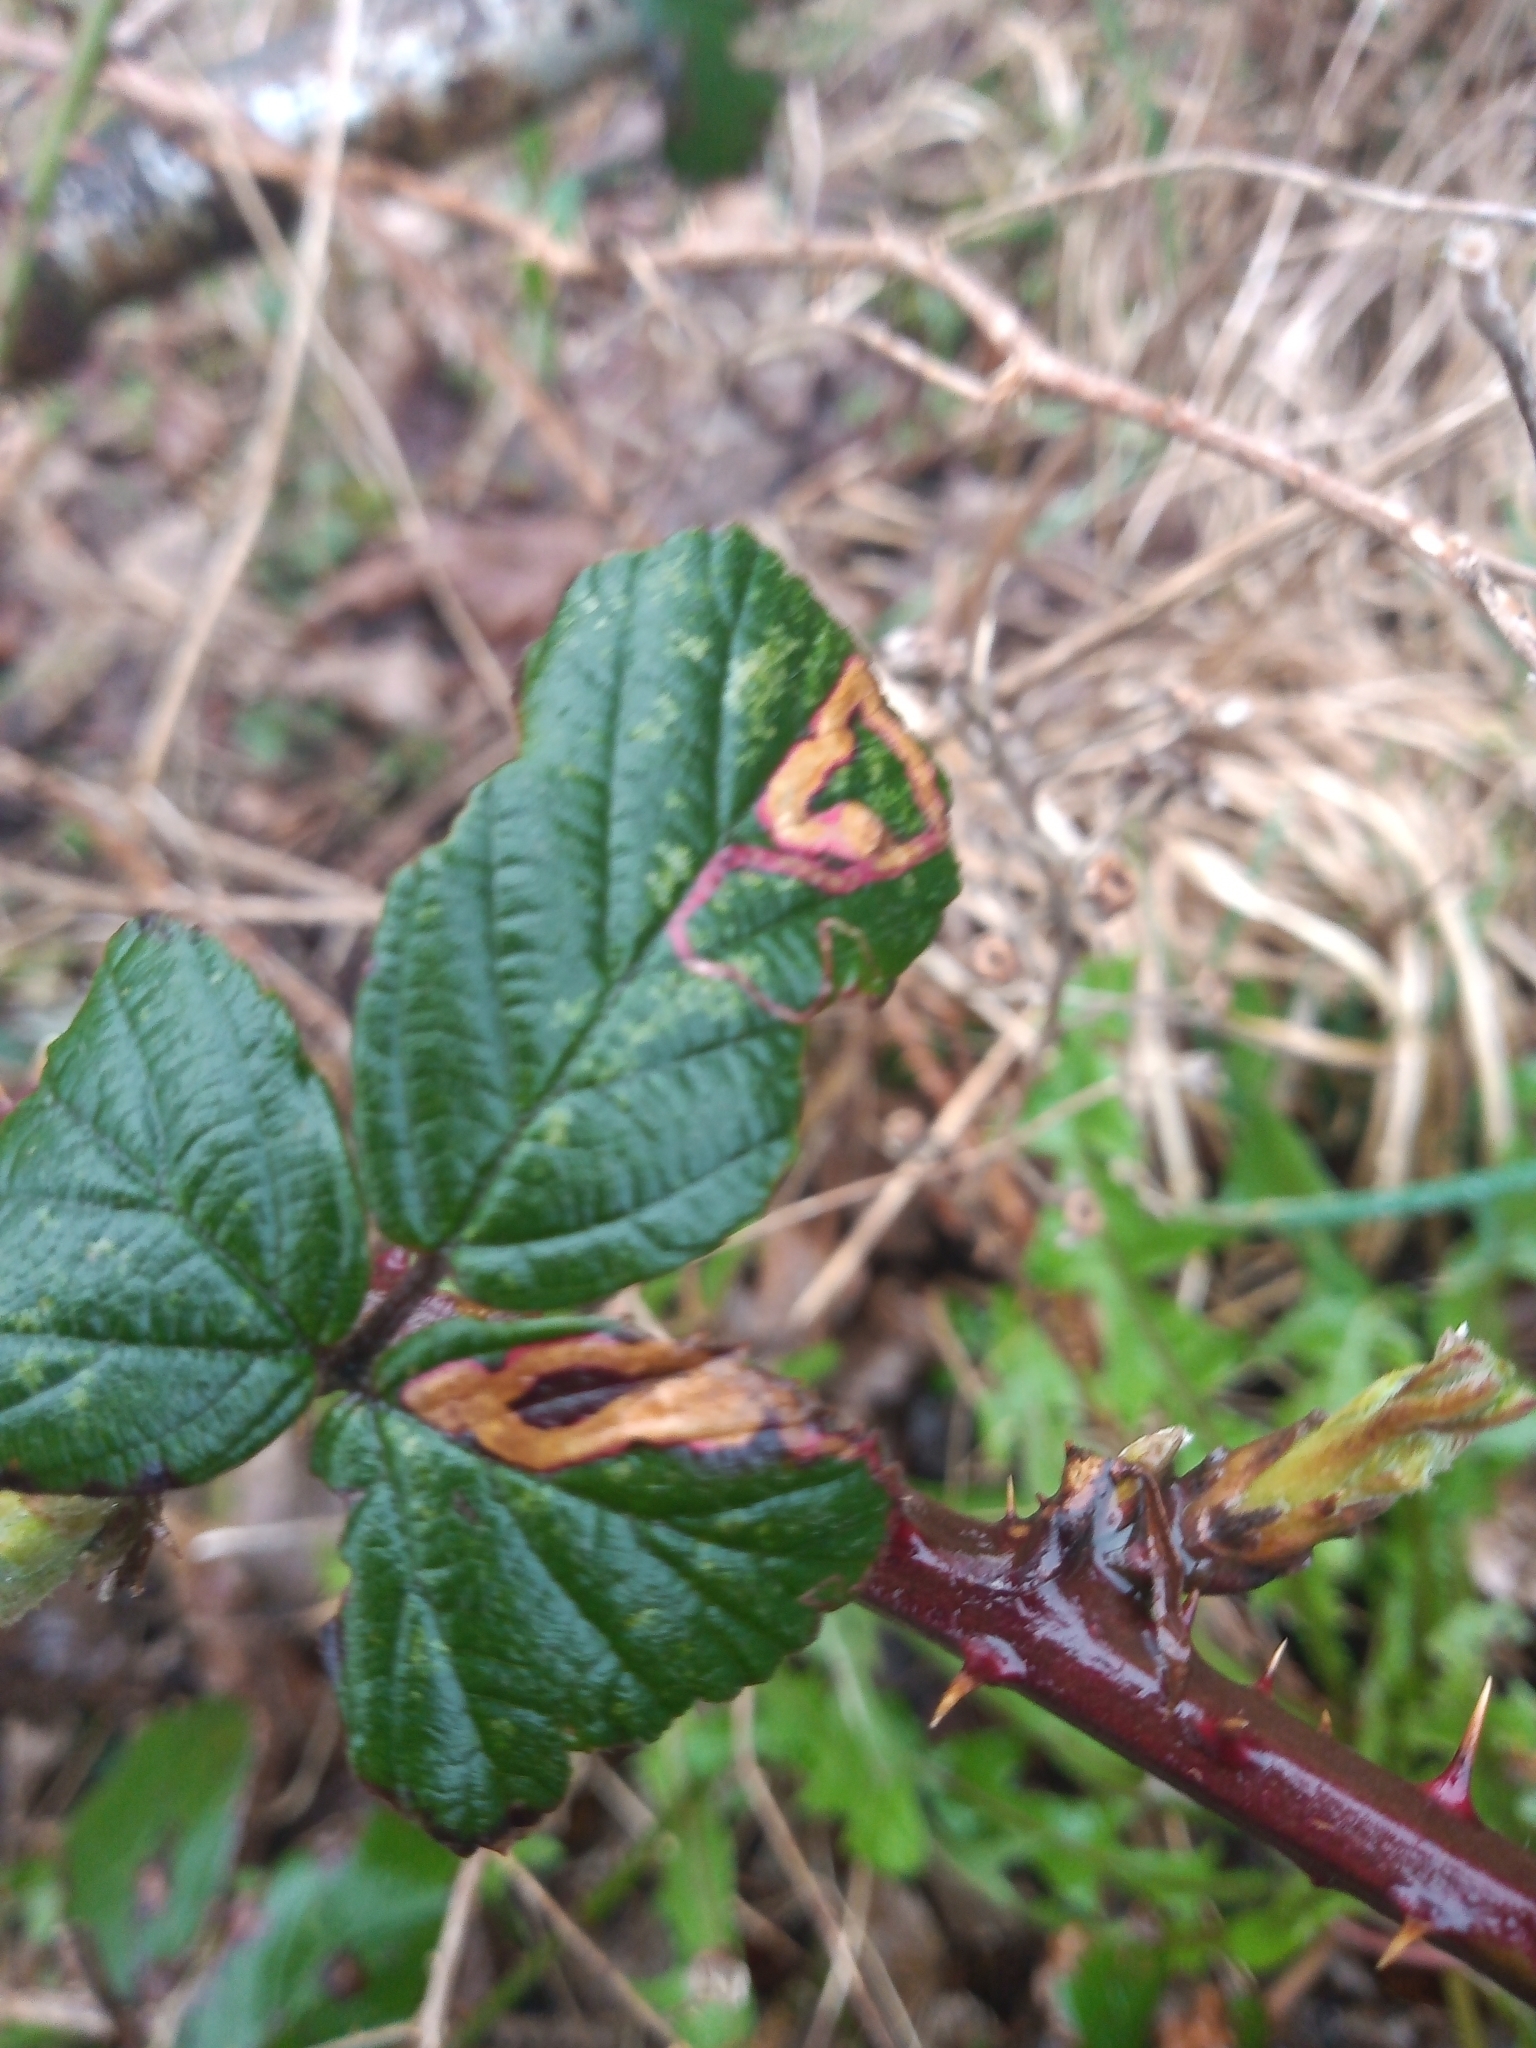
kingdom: Animalia
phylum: Arthropoda
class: Insecta
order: Lepidoptera
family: Nepticulidae
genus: Stigmella
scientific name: Stigmella aurella
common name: Golden pigmy
